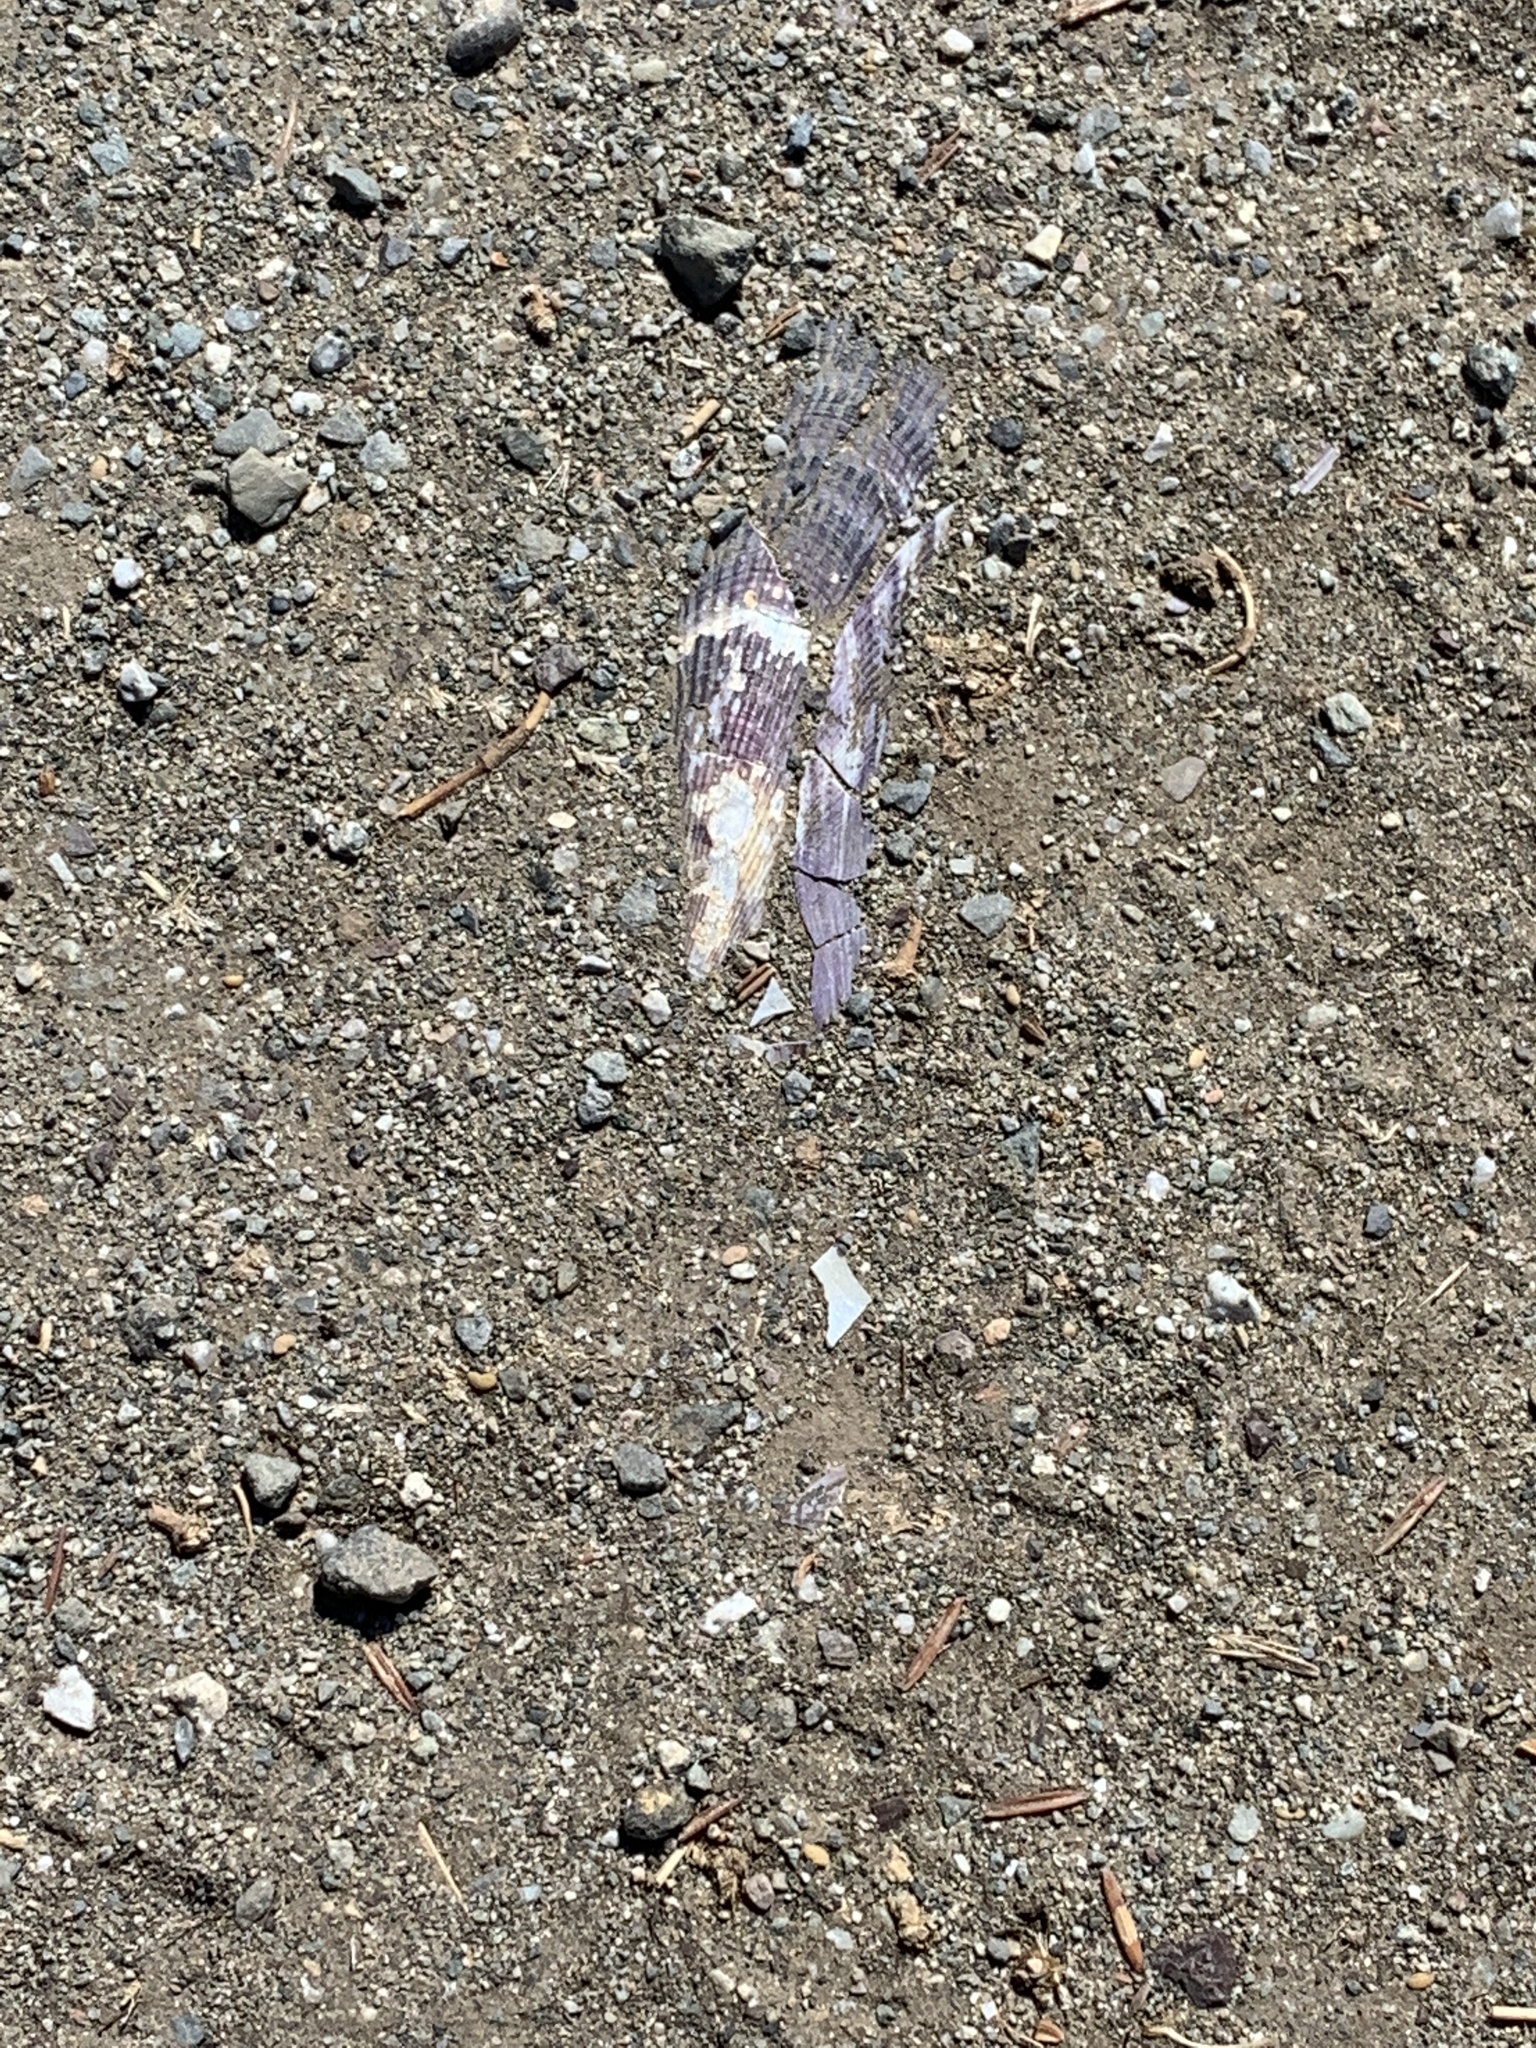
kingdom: Animalia
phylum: Mollusca
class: Bivalvia
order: Mytilida
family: Mytilidae
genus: Geukensia
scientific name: Geukensia demissa
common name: Ribbed mussel
